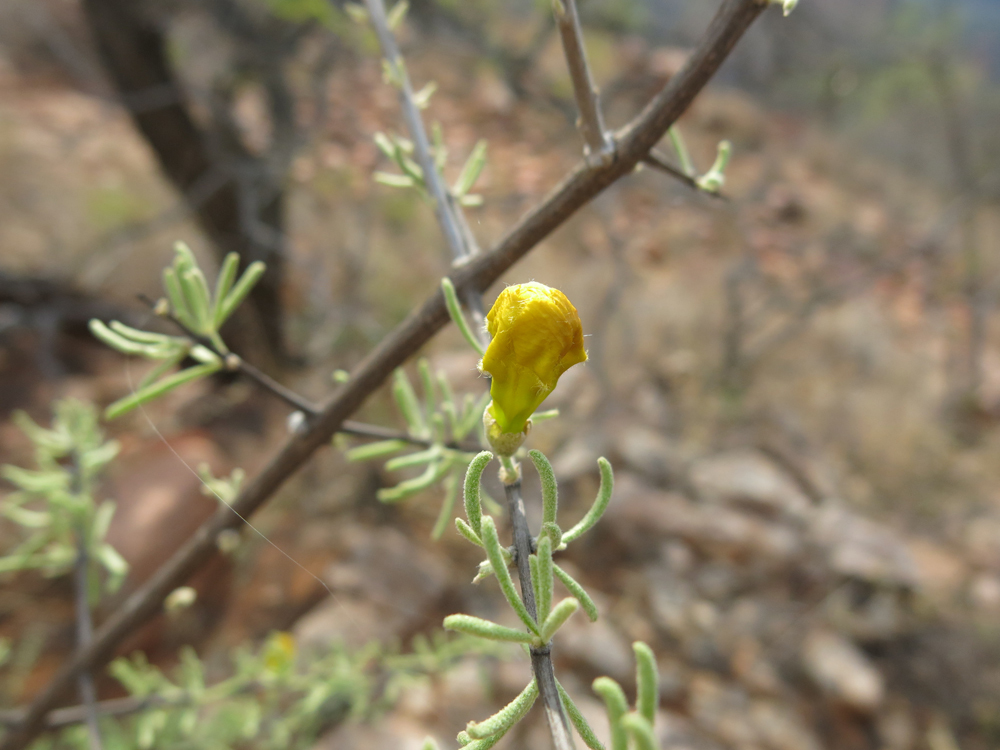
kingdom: Plantae
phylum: Tracheophyta
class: Magnoliopsida
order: Lamiales
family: Bignoniaceae
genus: Rhigozum
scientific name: Rhigozum brevispinosum
